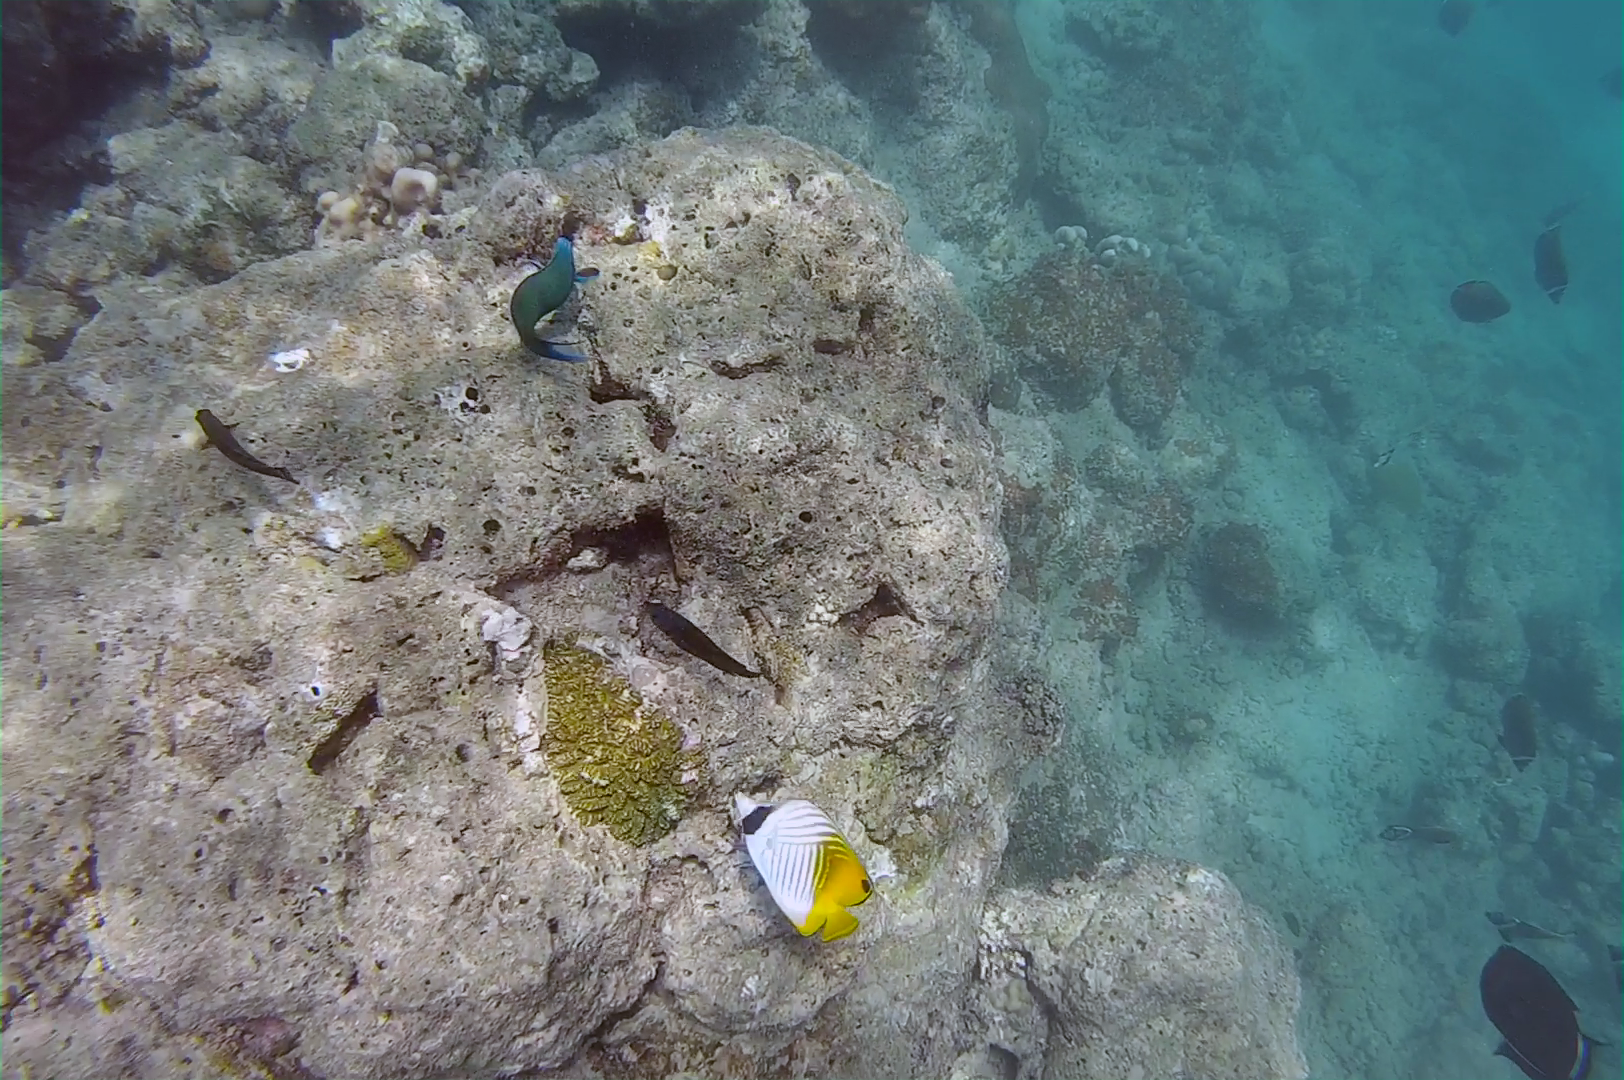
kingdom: Animalia
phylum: Chordata
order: Perciformes
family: Chaetodontidae
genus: Chaetodon
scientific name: Chaetodon auriga
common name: Threadfin butterflyfish
